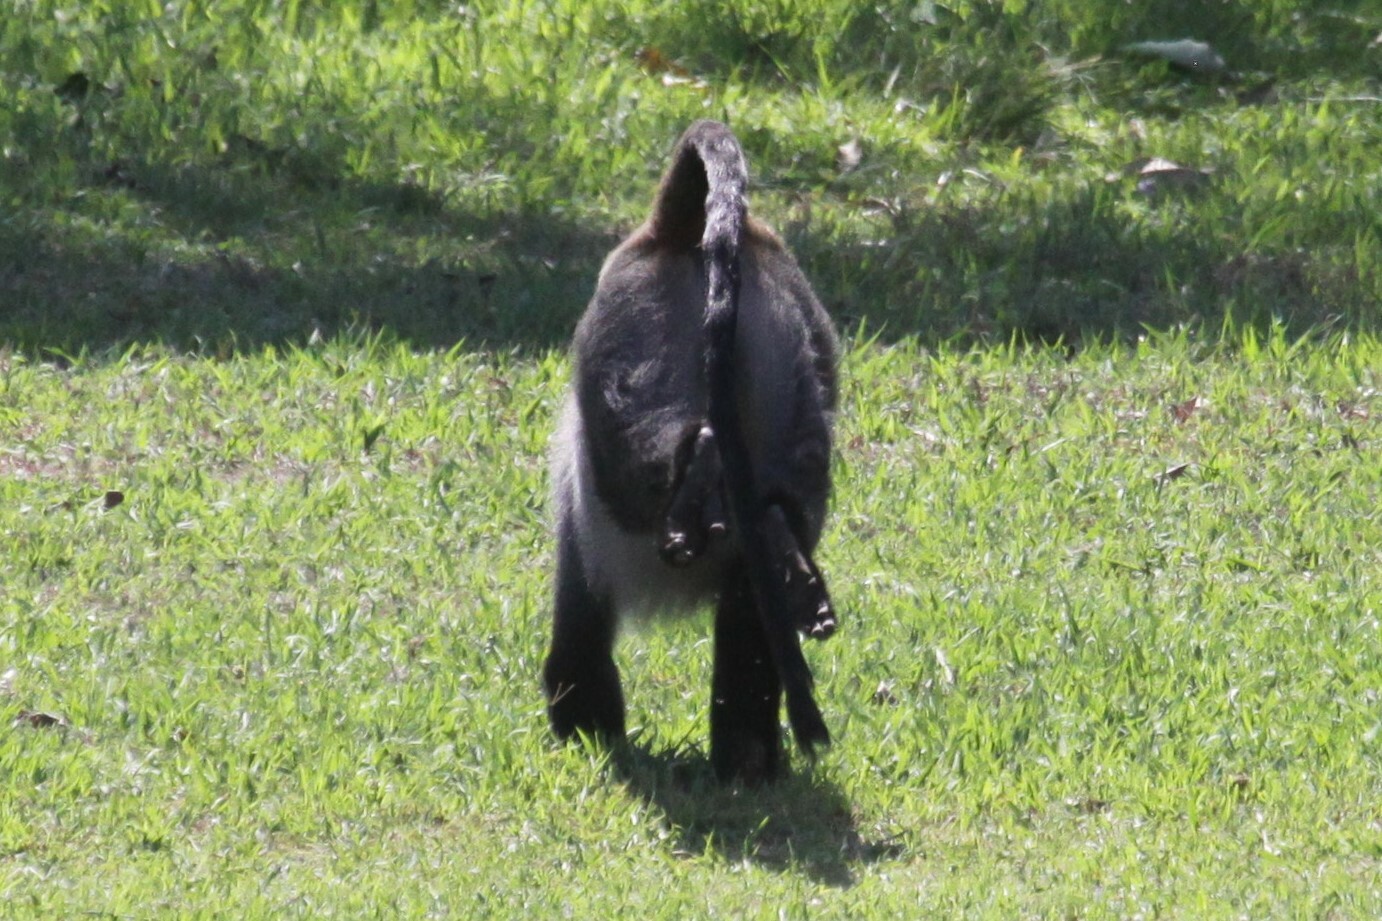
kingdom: Animalia
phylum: Chordata
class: Mammalia
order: Primates
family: Cercopithecidae
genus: Cercopithecus
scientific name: Cercopithecus mitis
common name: Blue monkey
